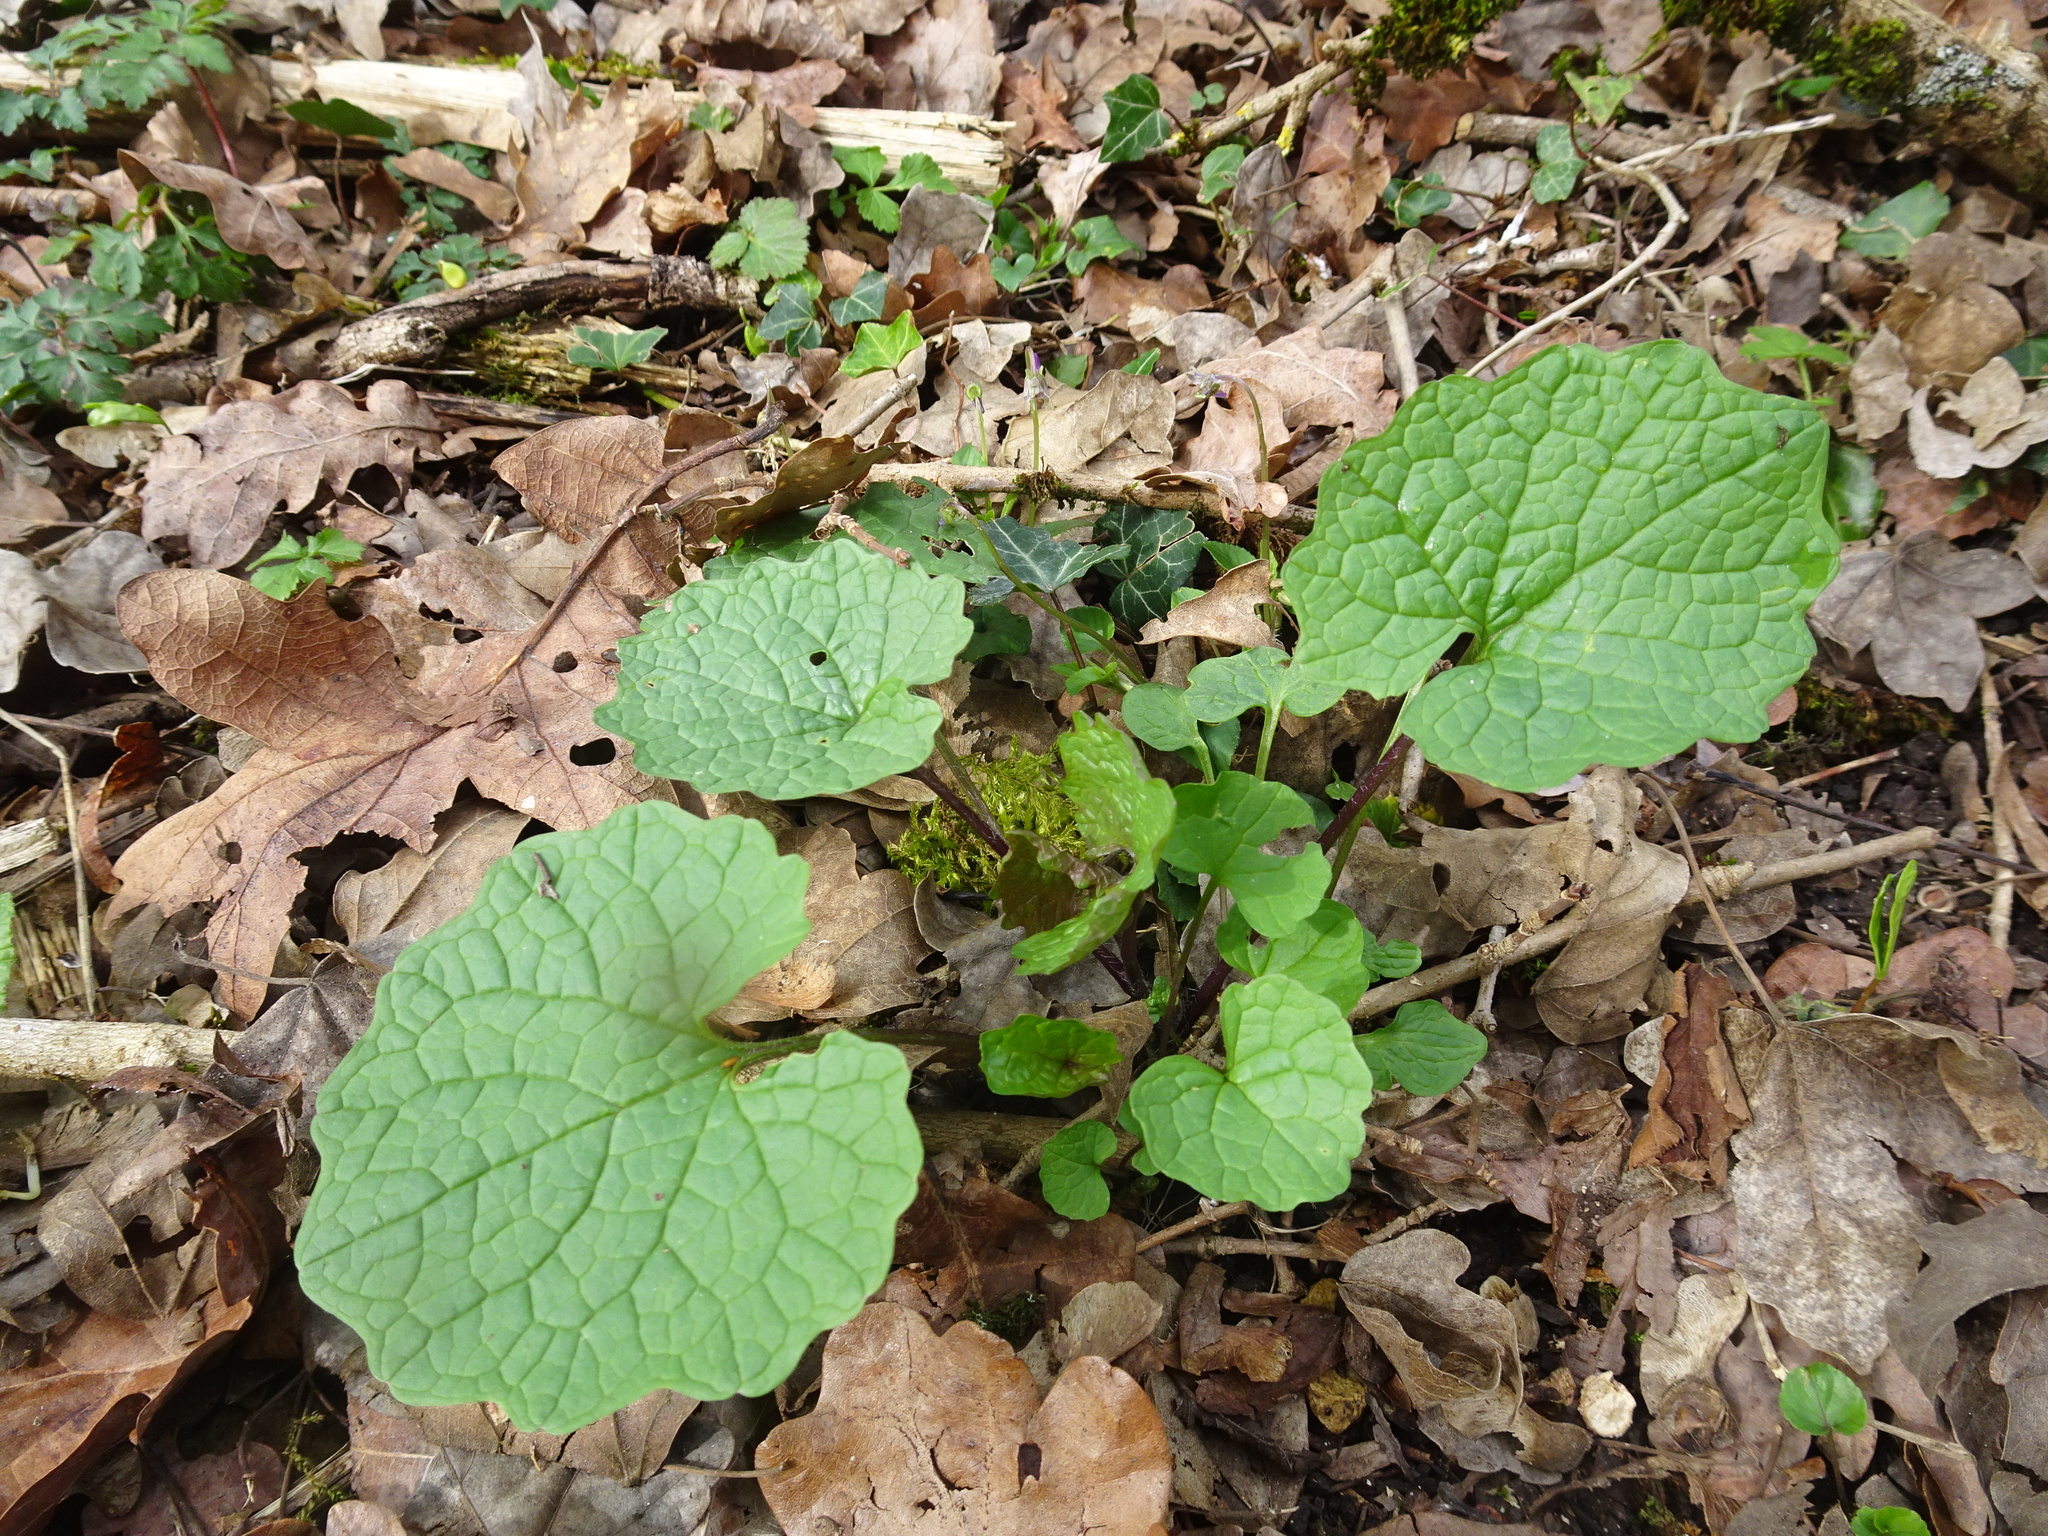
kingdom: Plantae
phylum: Tracheophyta
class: Magnoliopsida
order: Brassicales
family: Brassicaceae
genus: Alliaria
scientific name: Alliaria petiolata
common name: Garlic mustard
